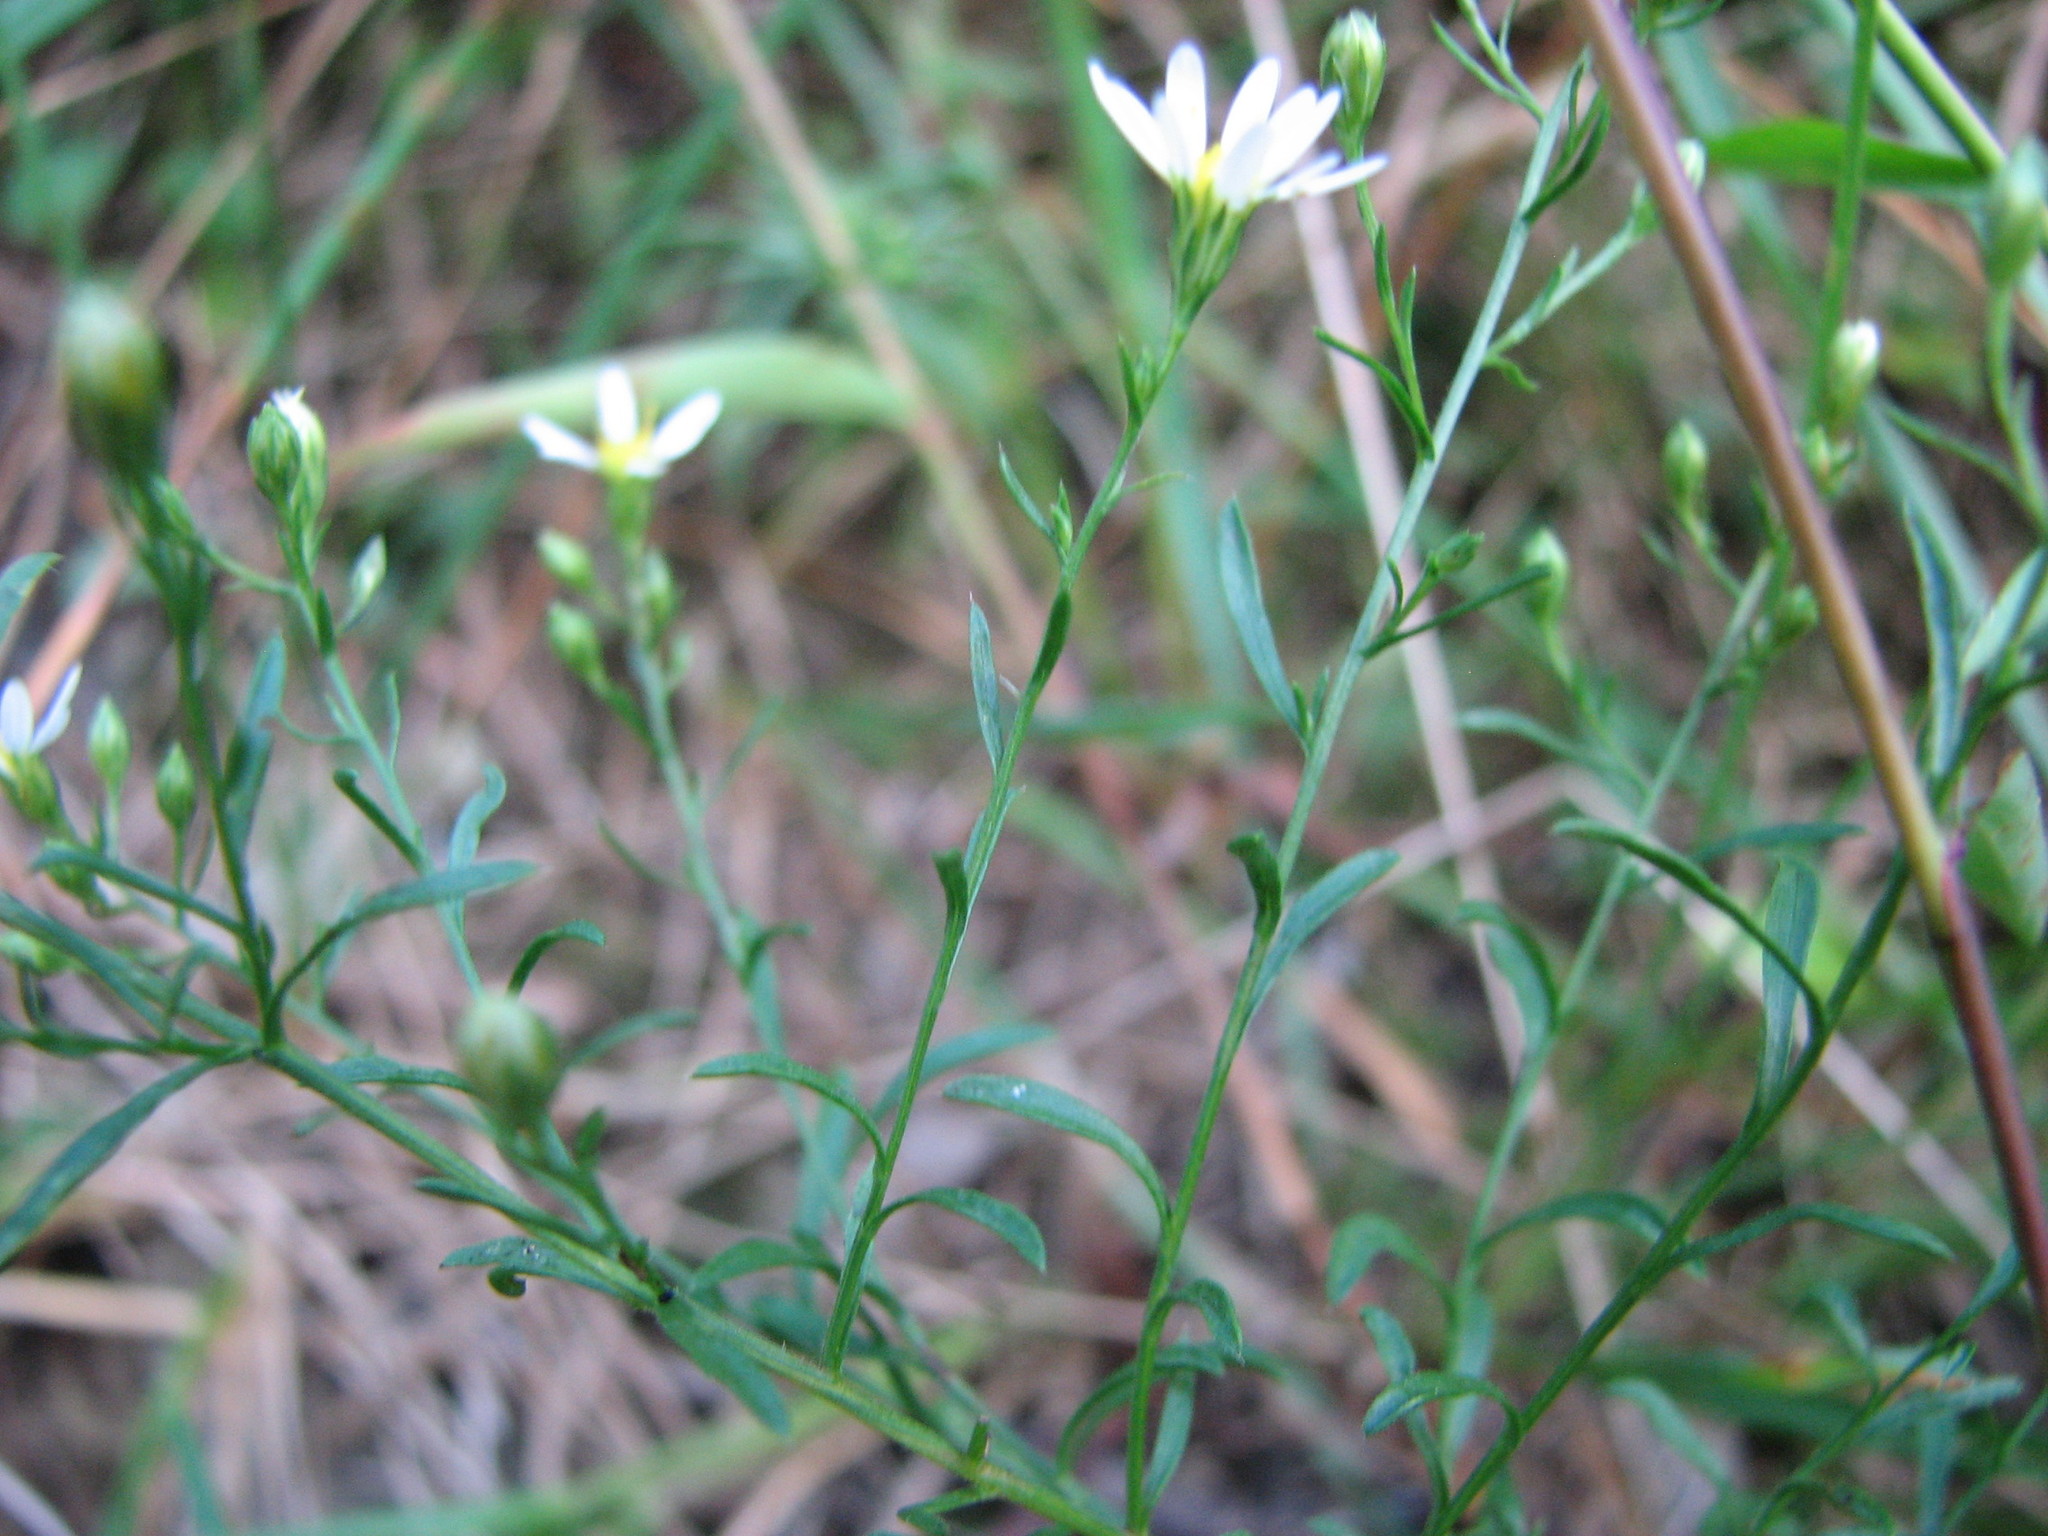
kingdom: Plantae
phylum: Tracheophyta
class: Magnoliopsida
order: Asterales
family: Asteraceae
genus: Symphyotrichum
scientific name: Symphyotrichum depauperatum
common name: Serpentine aster
